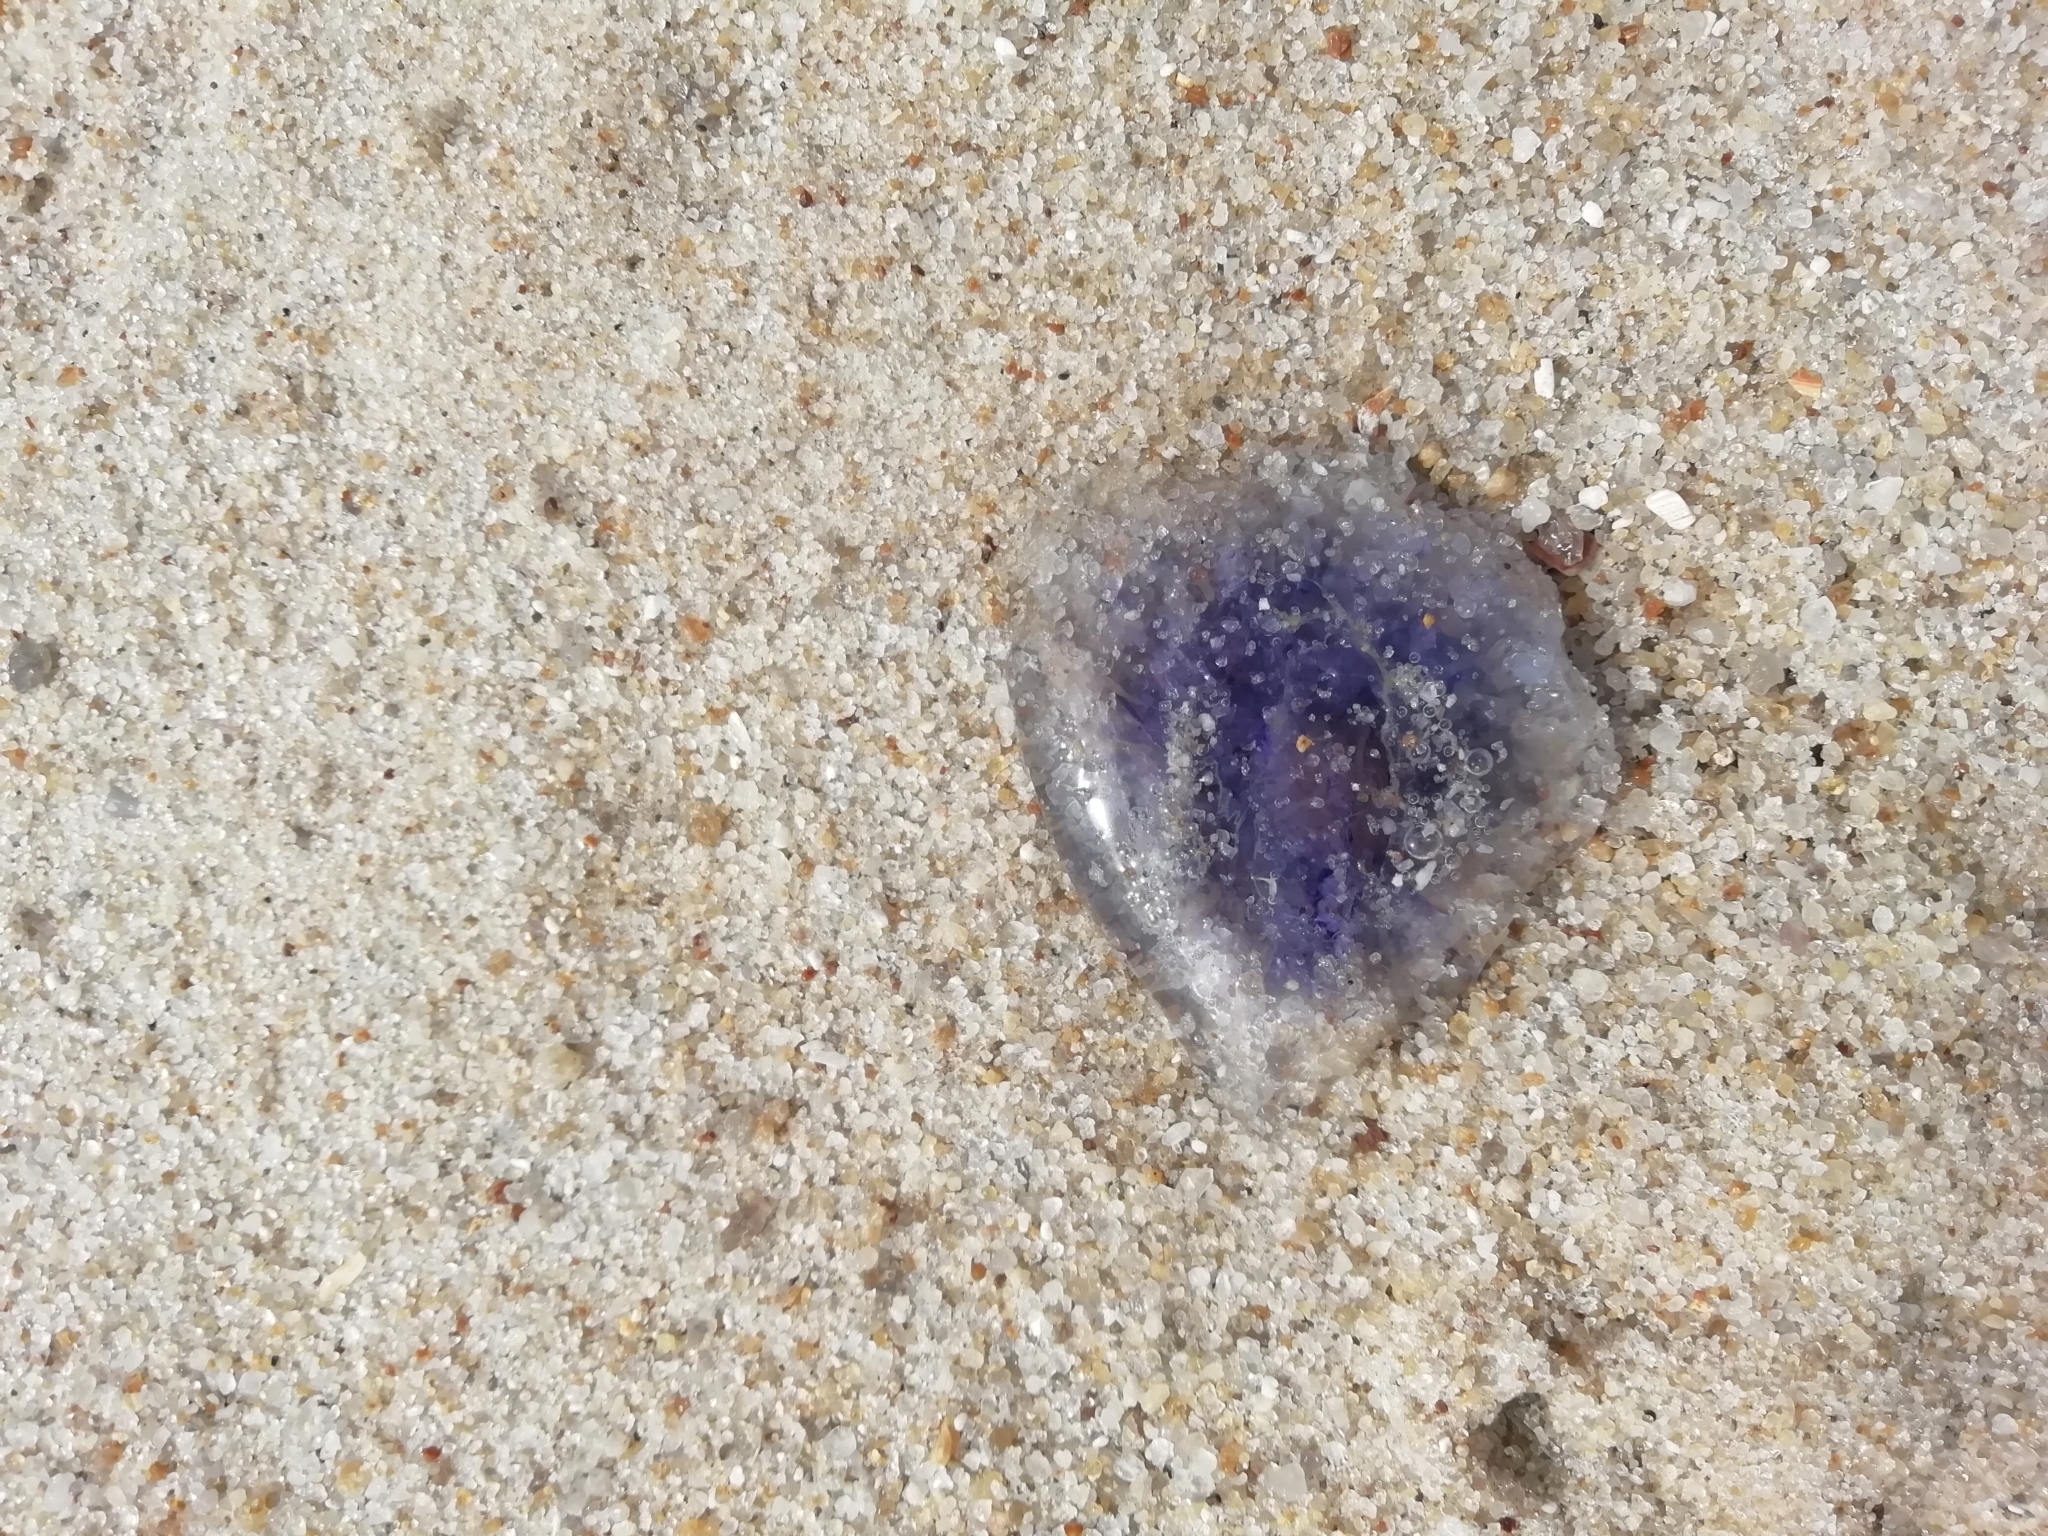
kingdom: Animalia
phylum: Cnidaria
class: Scyphozoa
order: Semaeostomeae
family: Cyaneidae
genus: Cyanea
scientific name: Cyanea lamarckii
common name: Blue jellyfish
